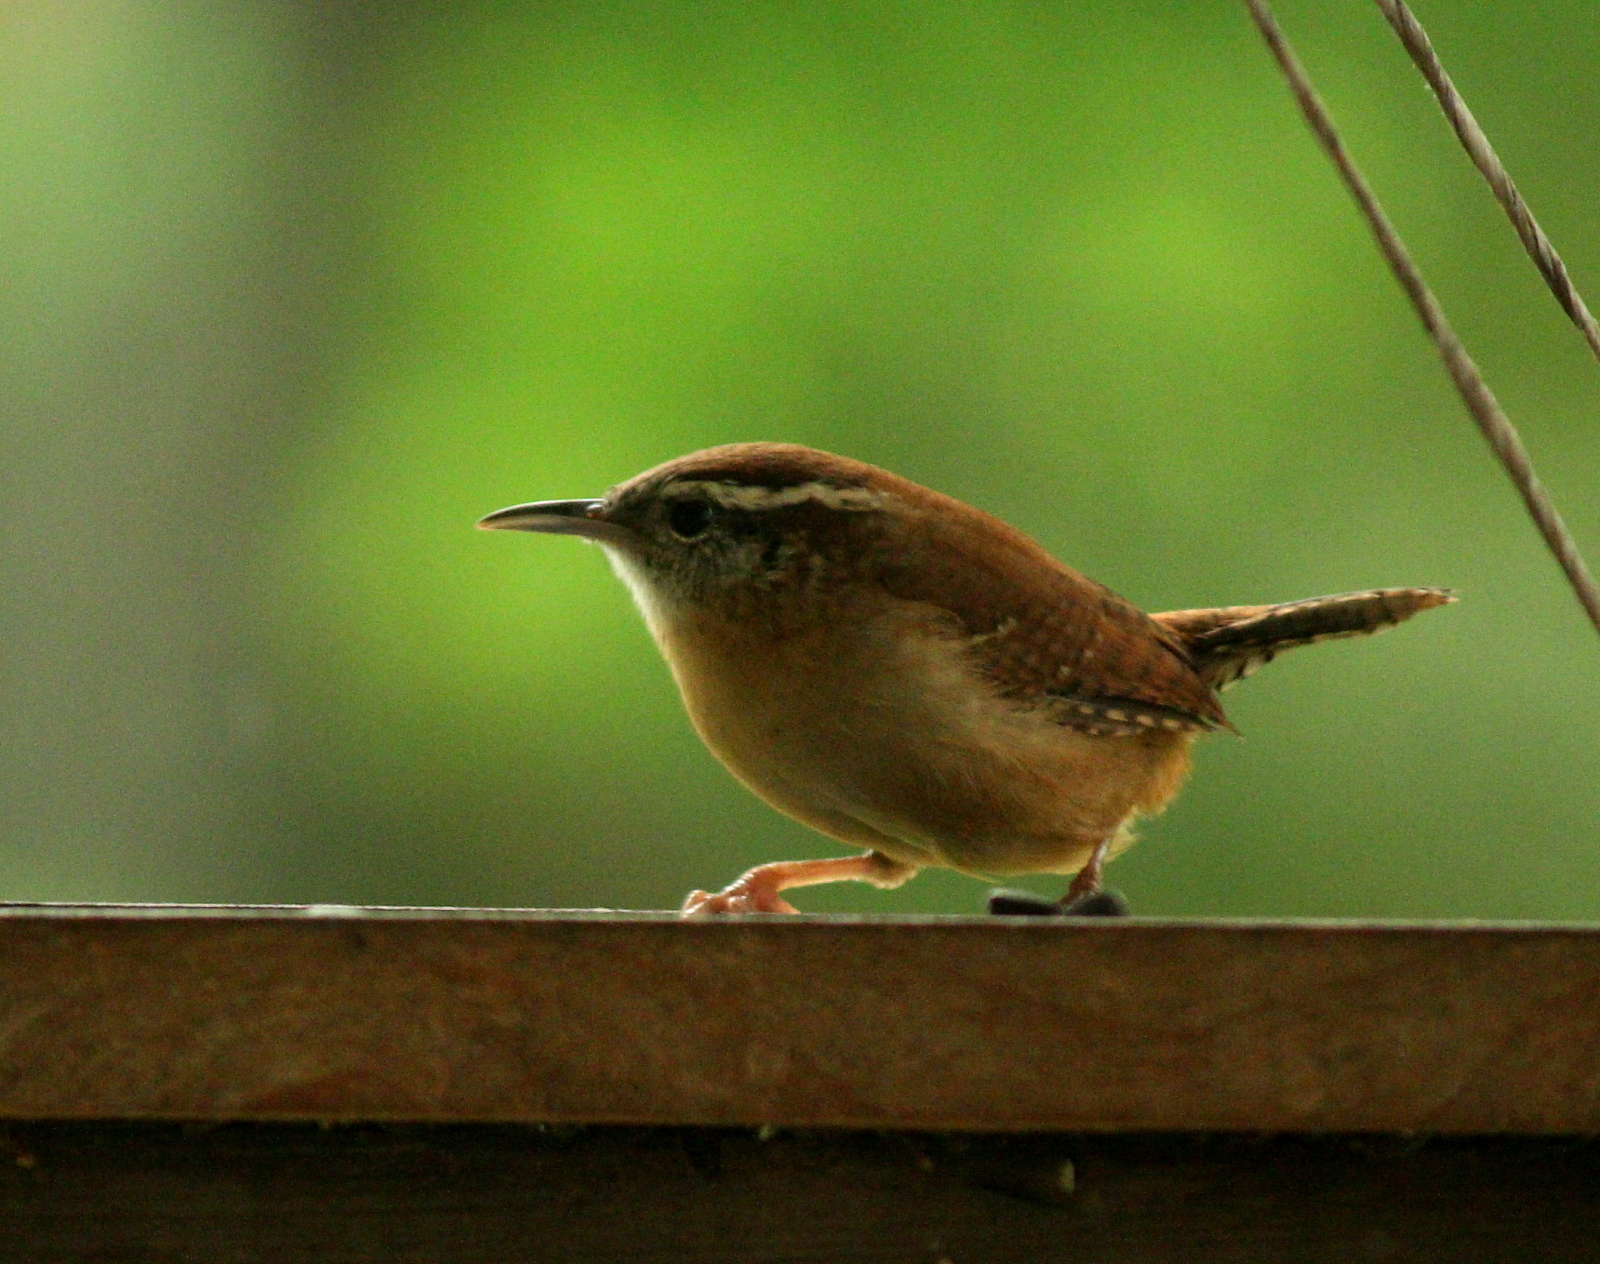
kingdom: Animalia
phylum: Chordata
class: Aves
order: Passeriformes
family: Troglodytidae
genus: Thryothorus
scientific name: Thryothorus ludovicianus
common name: Carolina wren
